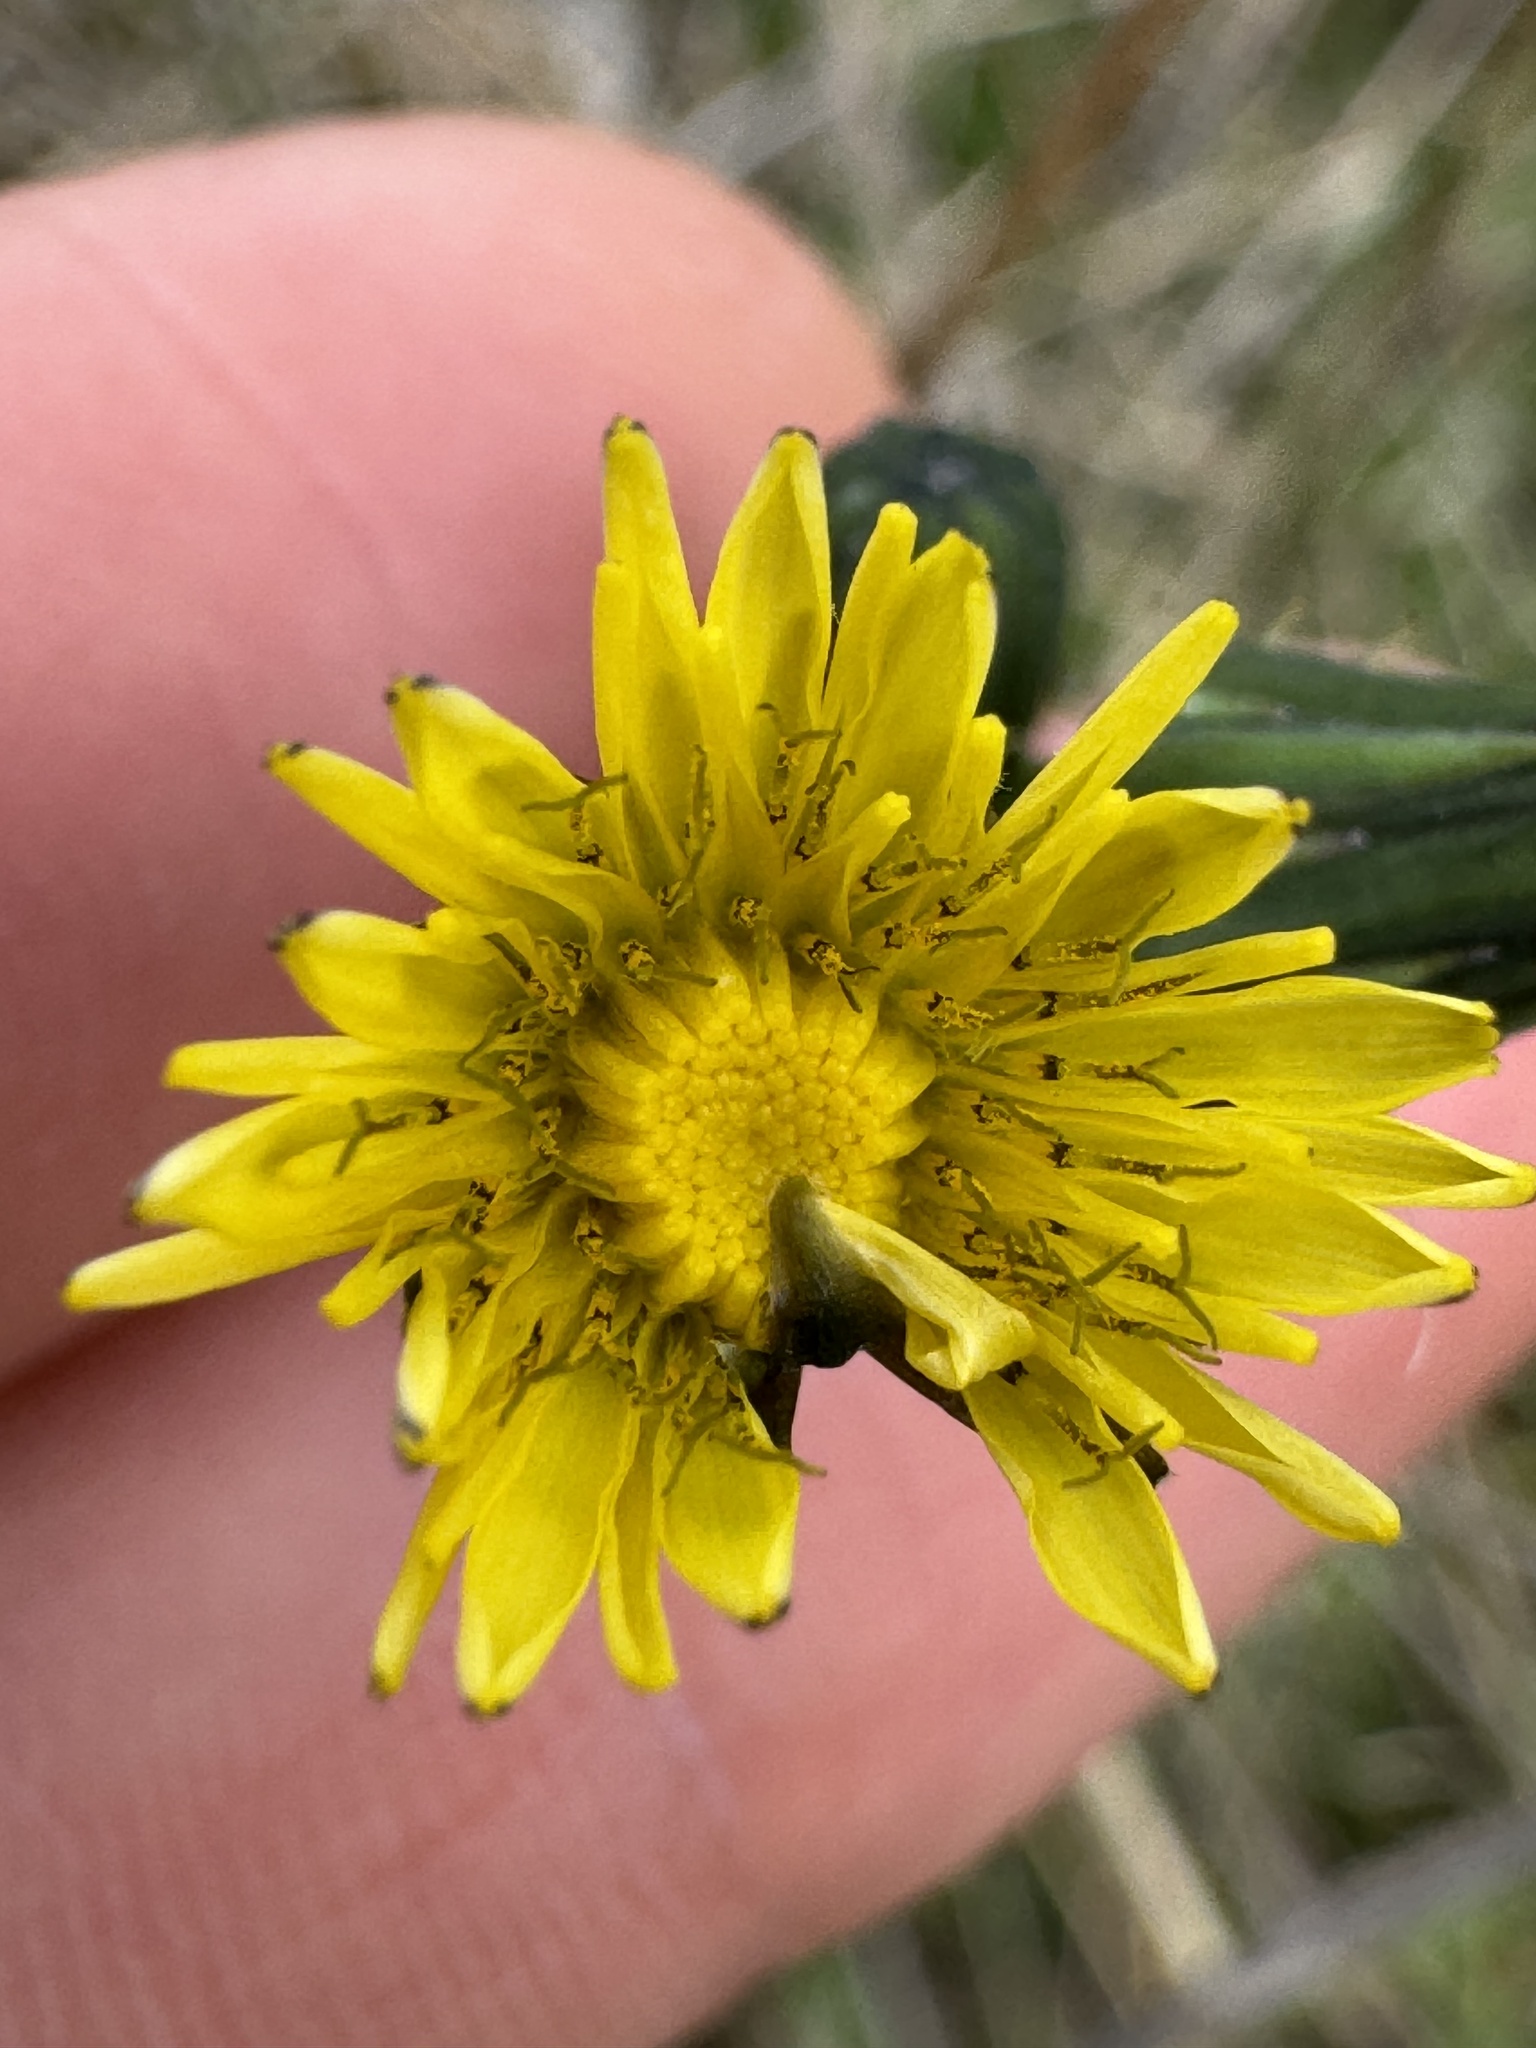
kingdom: Plantae
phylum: Tracheophyta
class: Magnoliopsida
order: Asterales
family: Asteraceae
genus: Sonchus
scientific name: Sonchus oleraceus
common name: Common sowthistle
